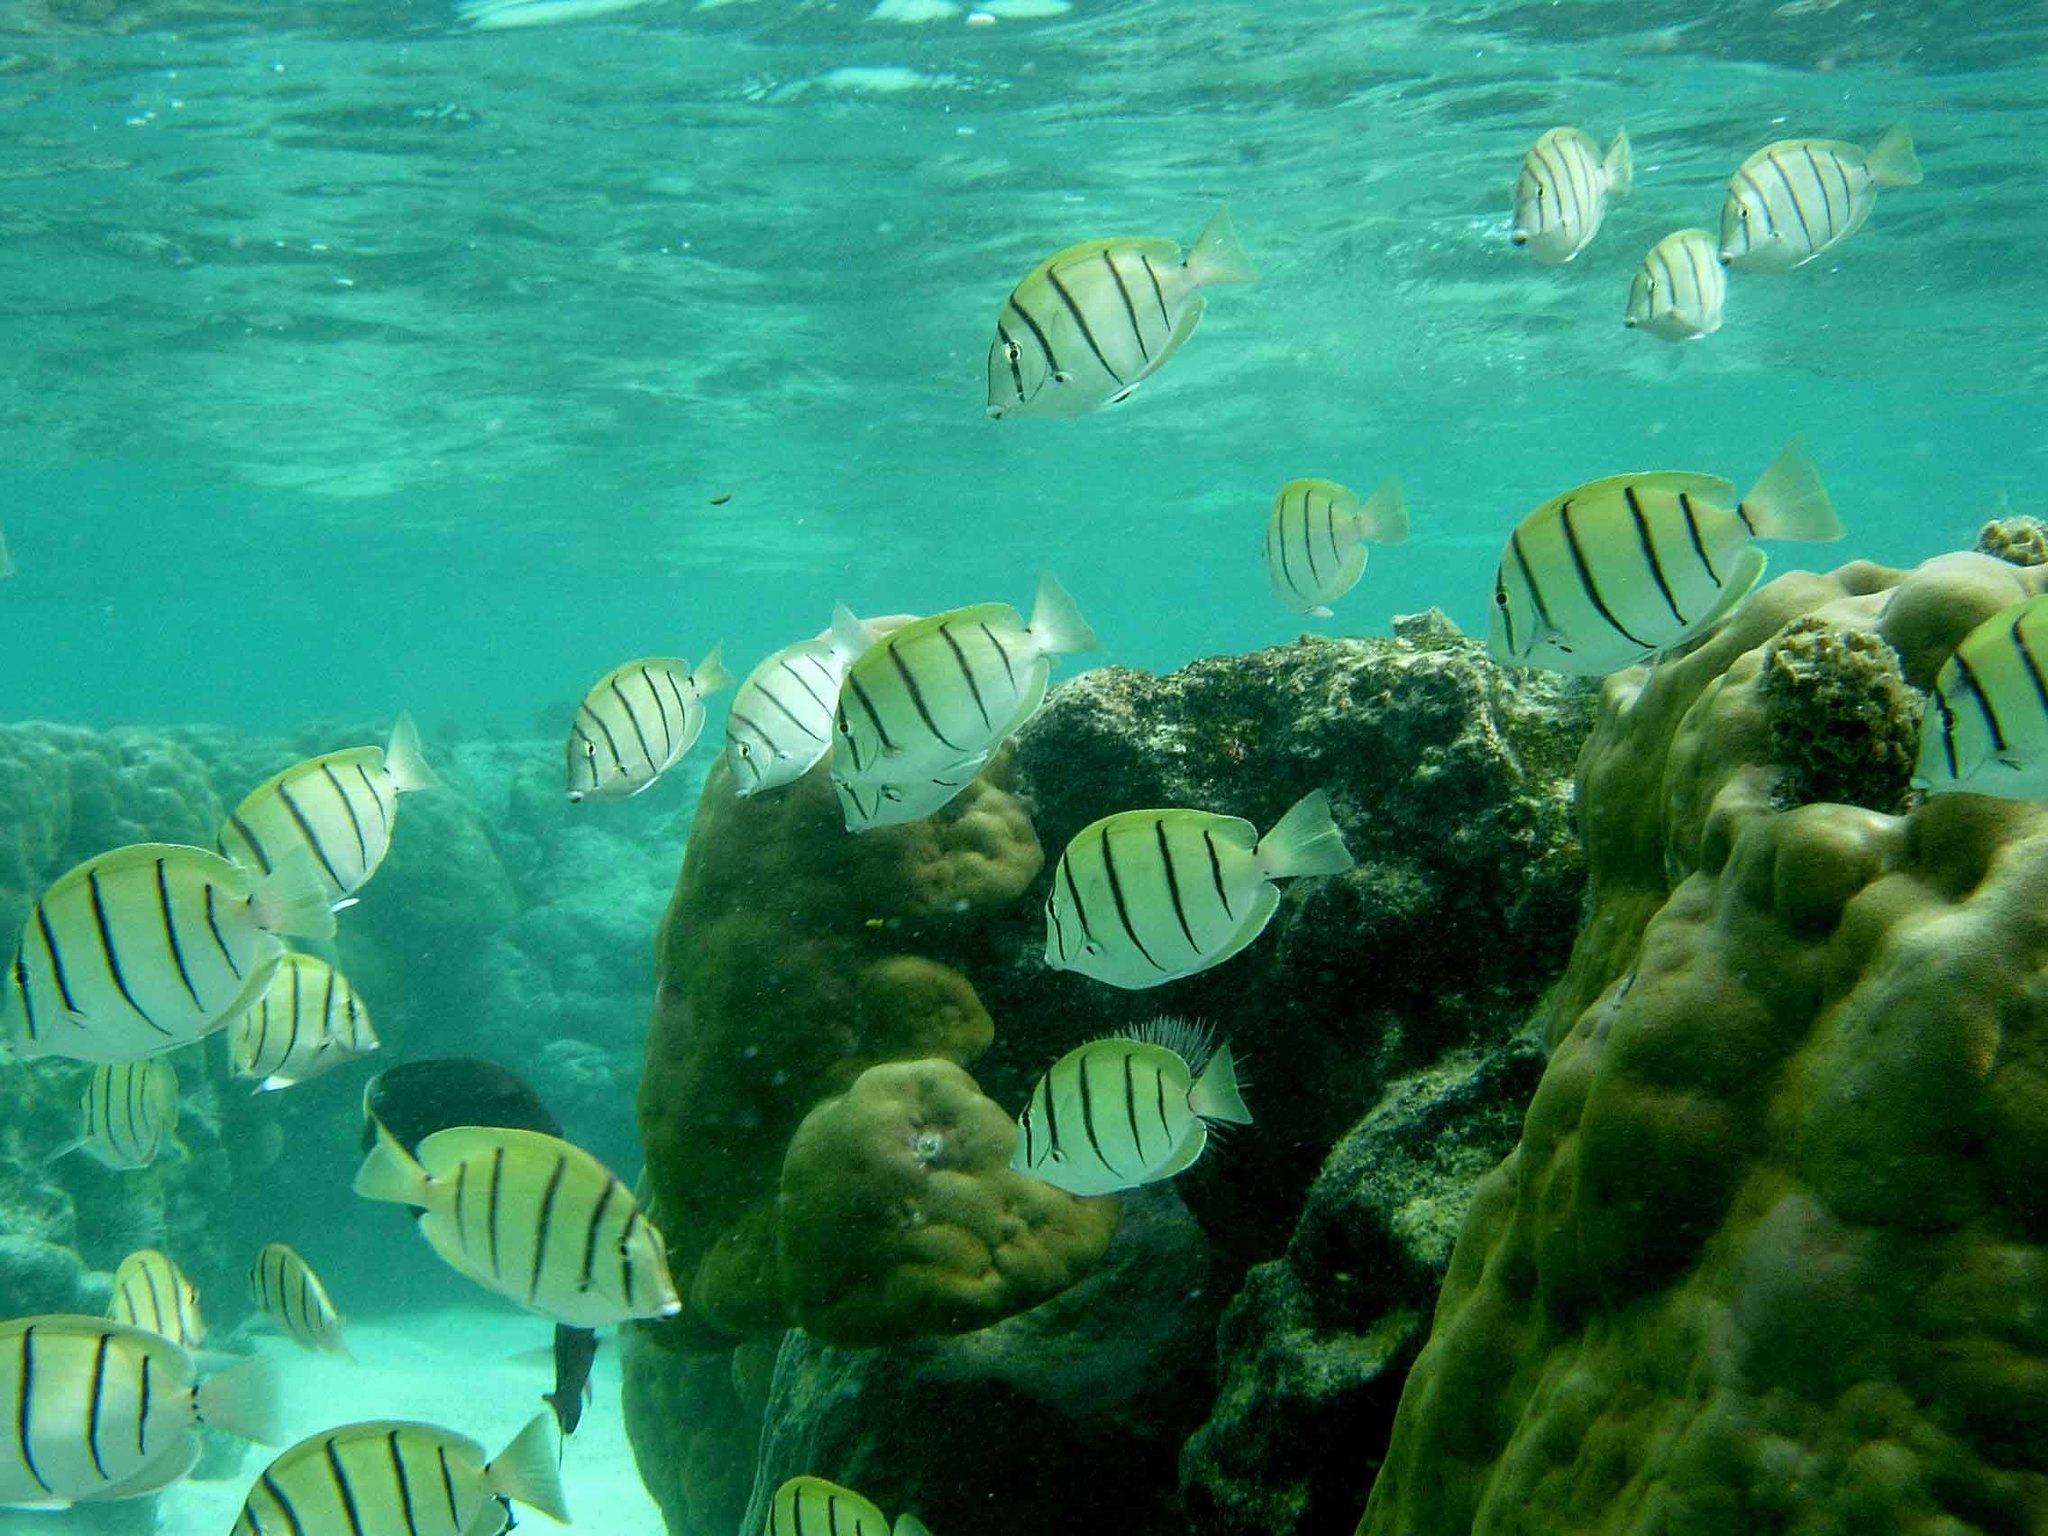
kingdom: Animalia
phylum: Chordata
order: Perciformes
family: Acanthuridae
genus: Acanthurus
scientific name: Acanthurus triostegus
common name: Convict surgeonfish
